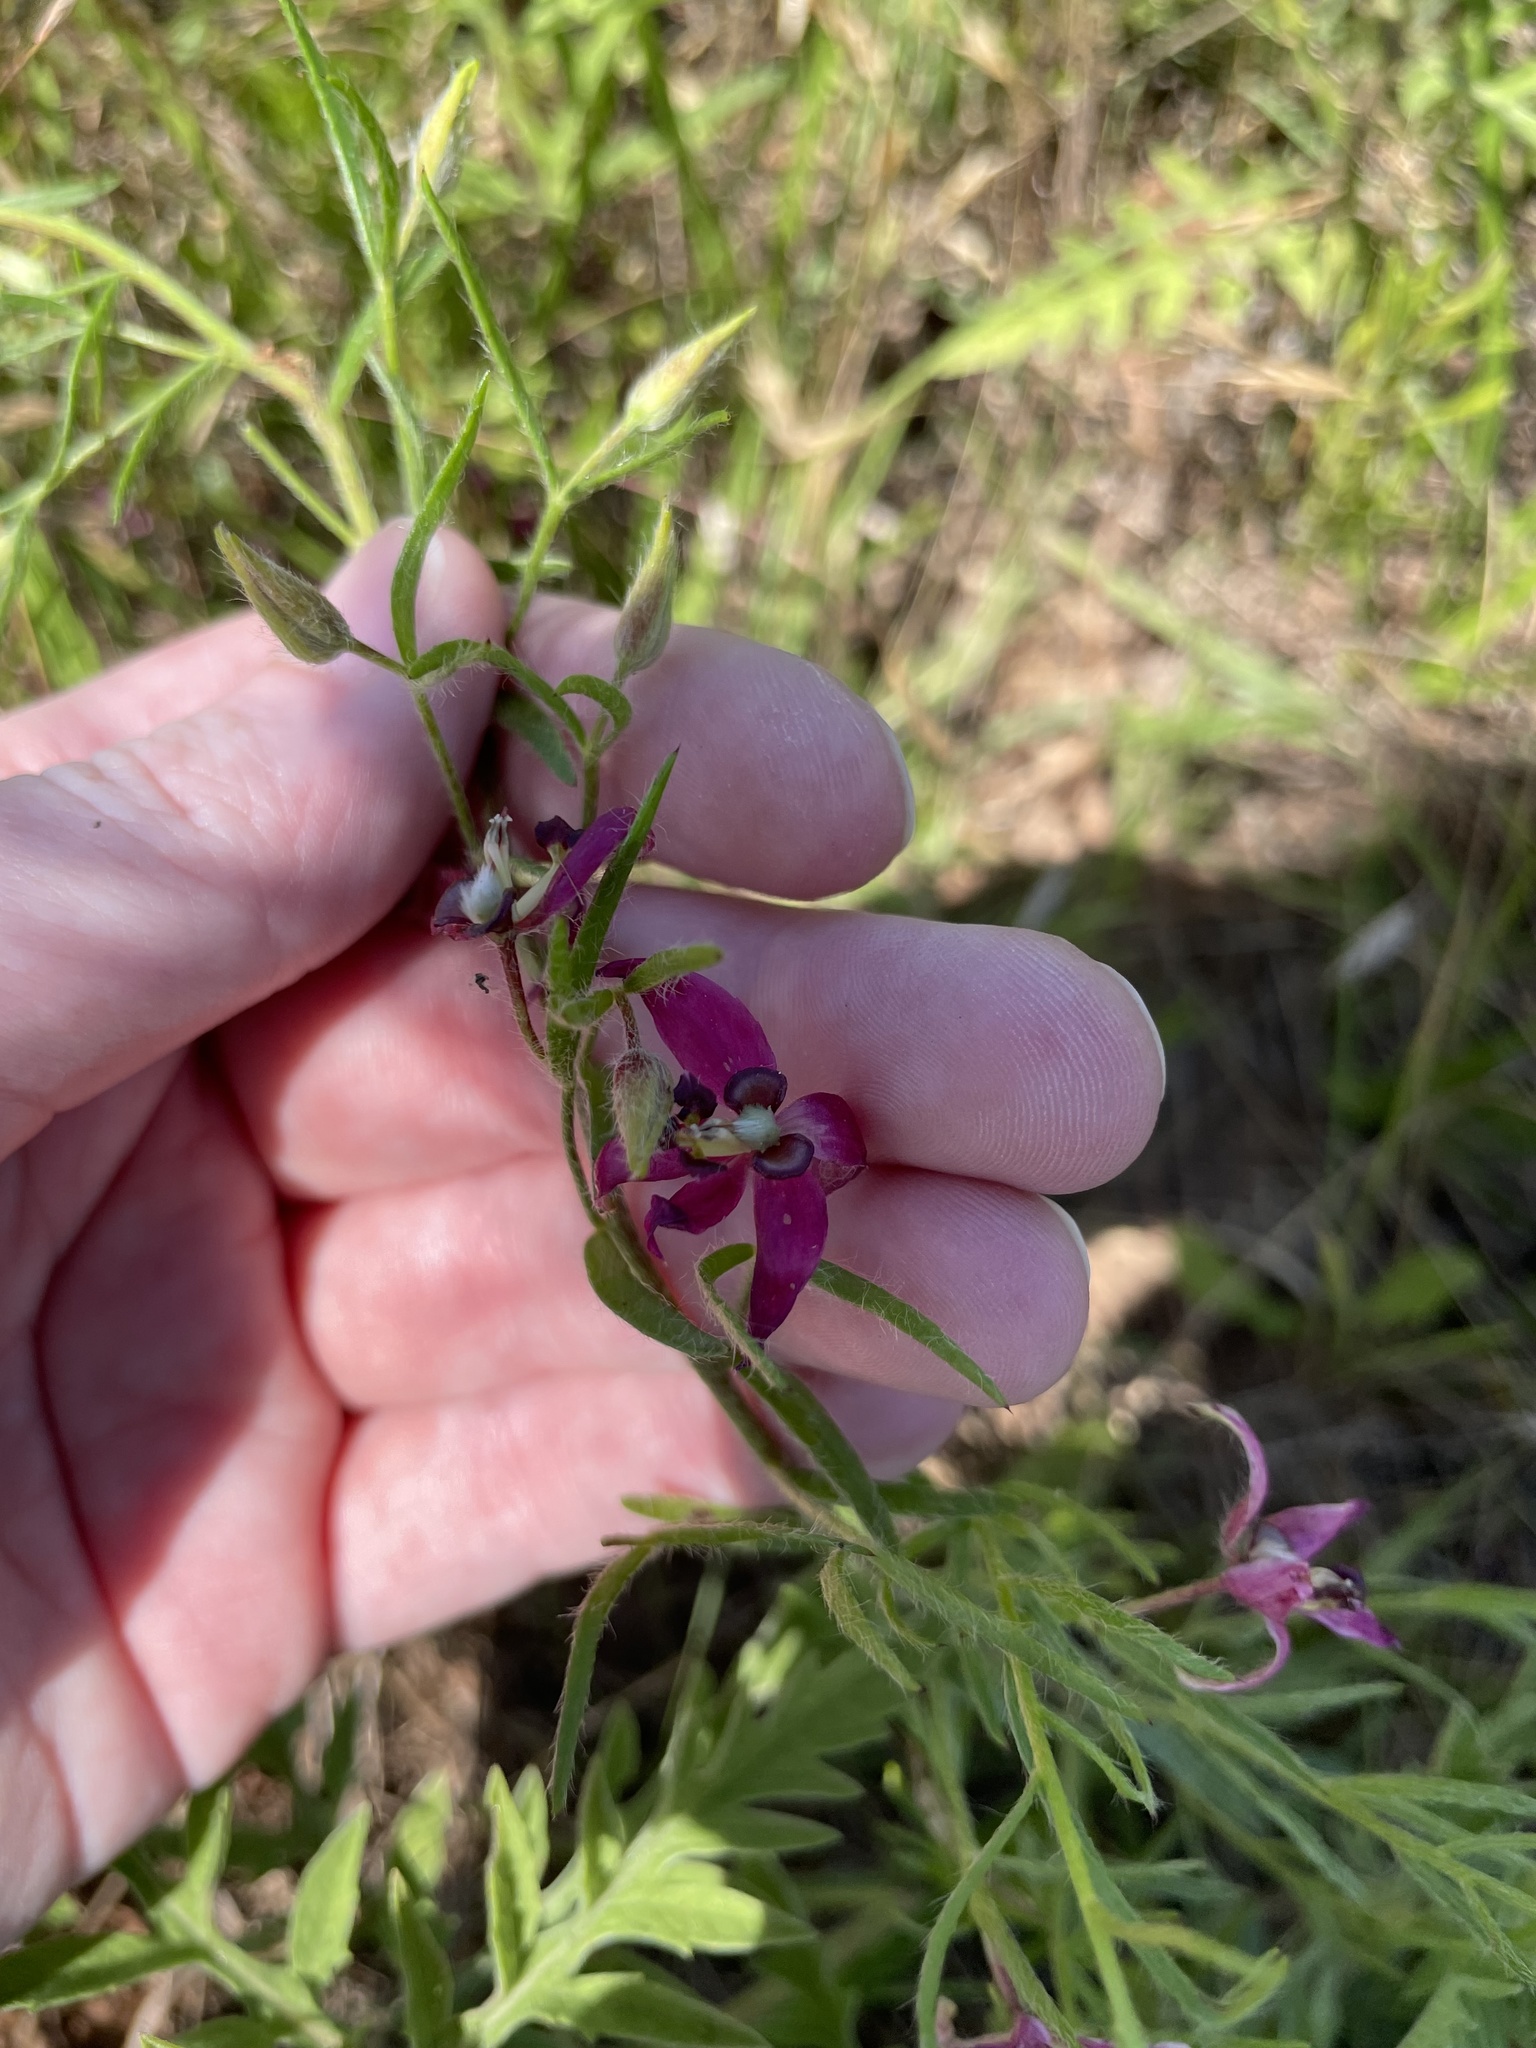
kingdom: Plantae
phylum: Tracheophyta
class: Magnoliopsida
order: Zygophyllales
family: Krameriaceae
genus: Krameria
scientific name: Krameria lanceolata
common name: Ratany
